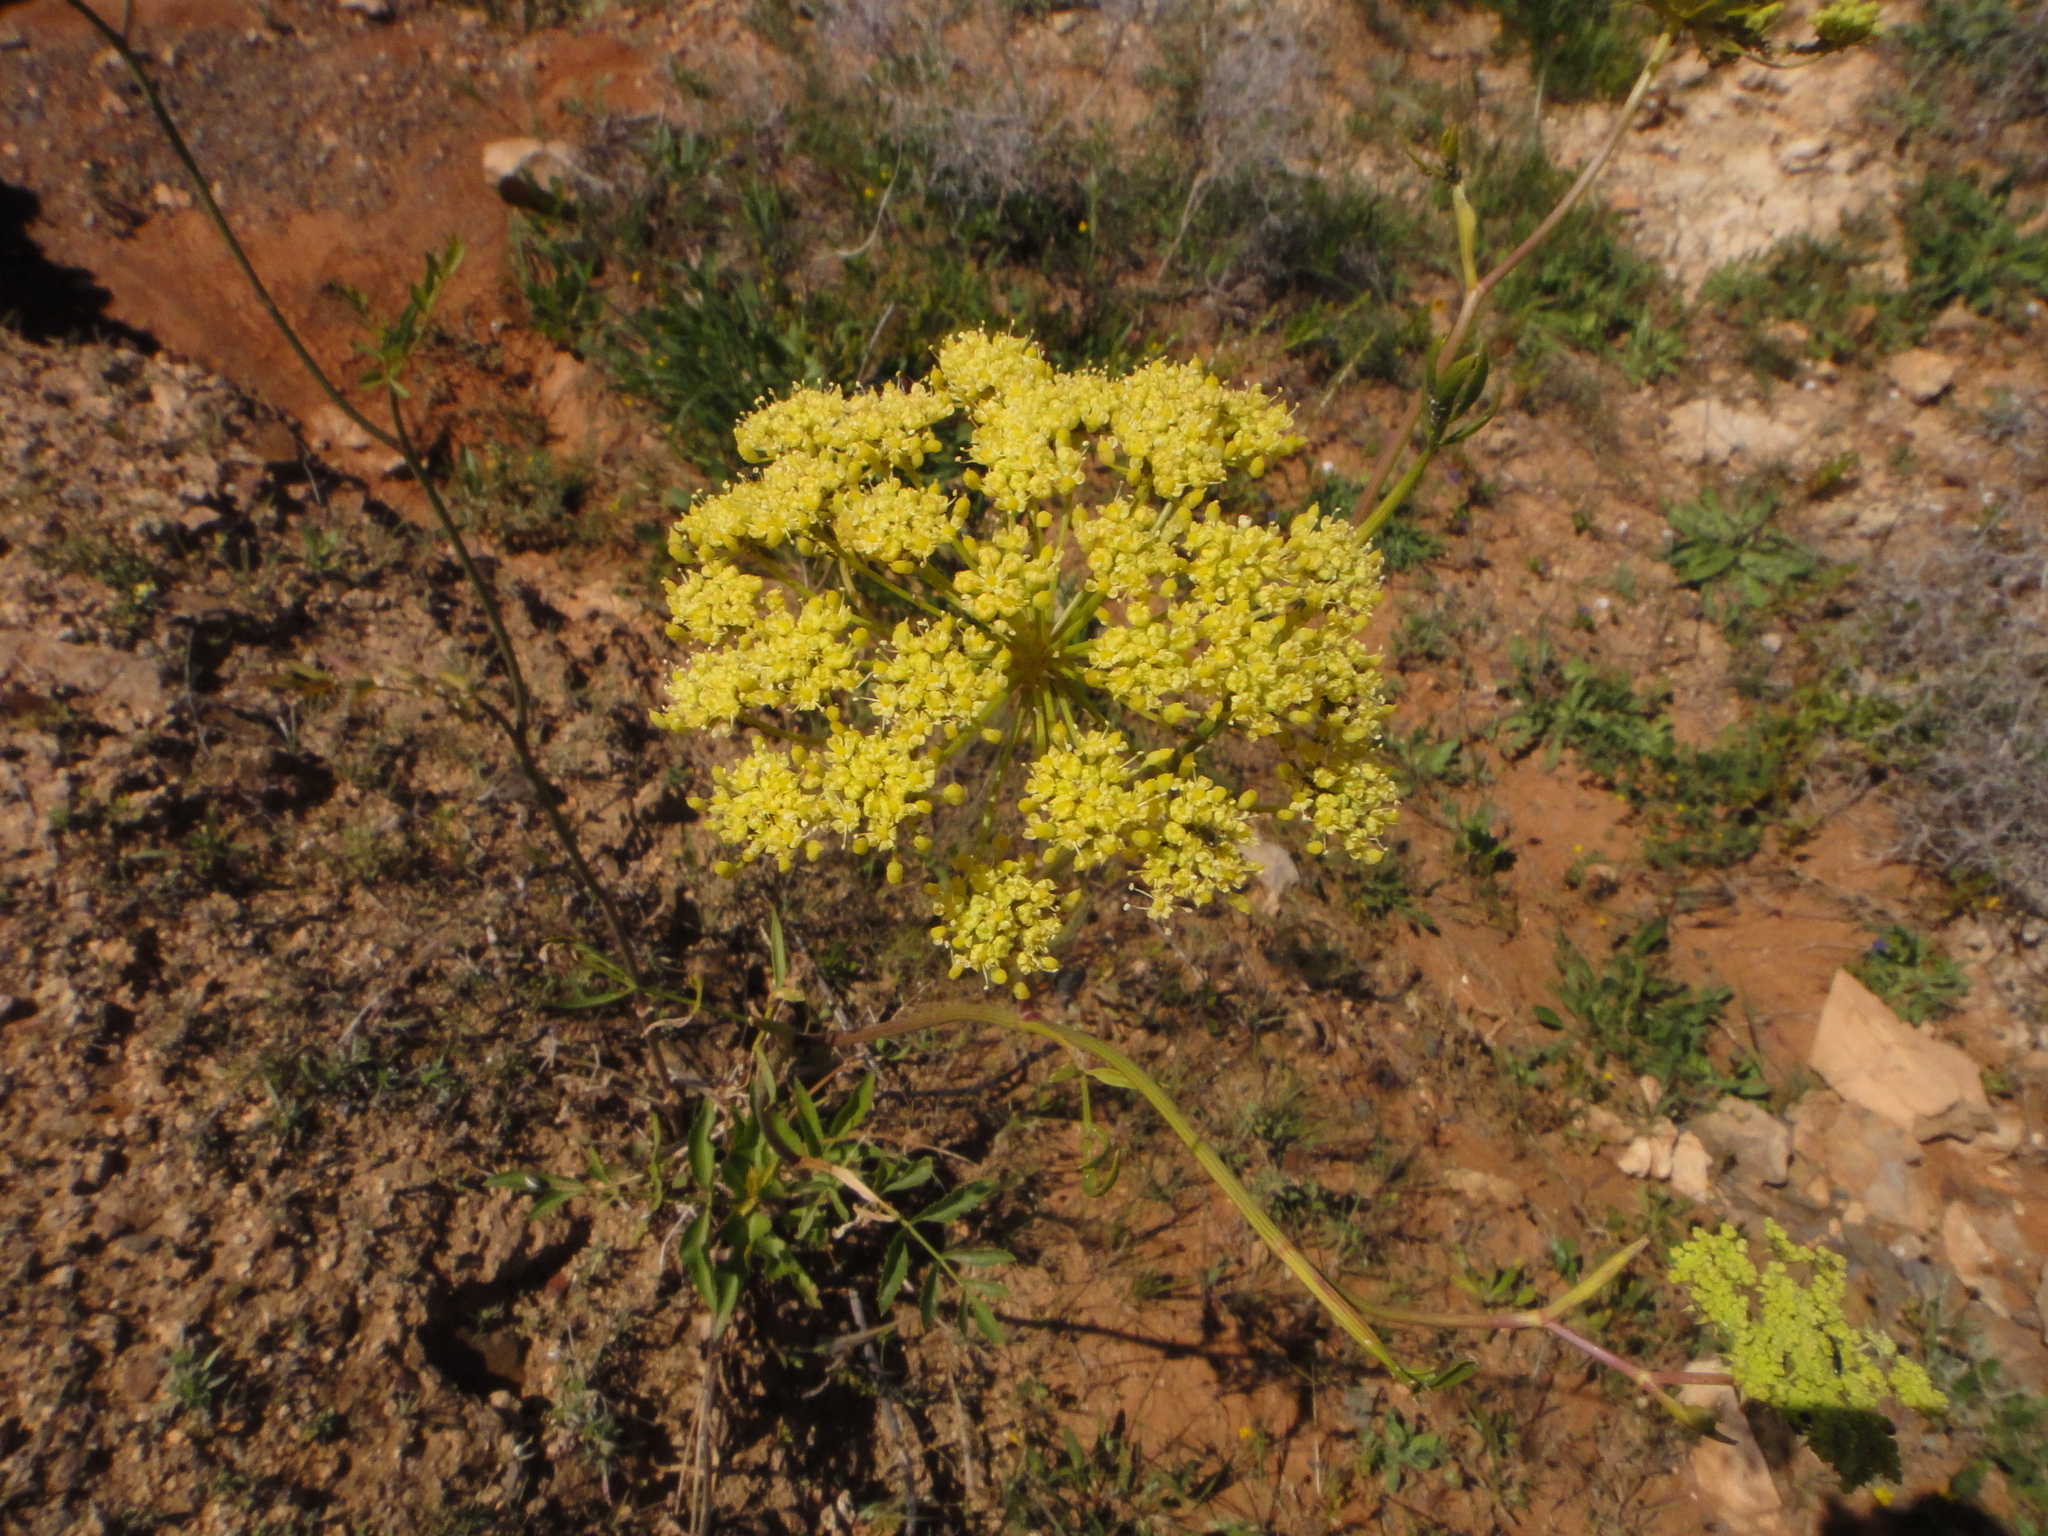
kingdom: Plantae
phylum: Tracheophyta
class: Magnoliopsida
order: Apiales
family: Apiaceae
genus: Rutheopsis
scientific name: Rutheopsis herbanica
